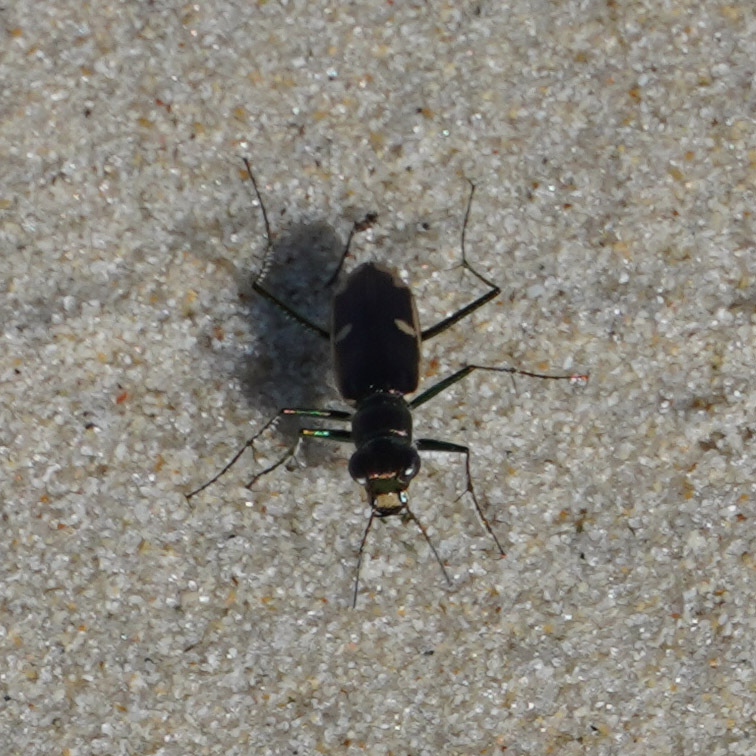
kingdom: Animalia
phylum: Arthropoda
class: Insecta
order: Coleoptera
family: Carabidae
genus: Hypaetha
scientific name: Hypaetha biramosa
